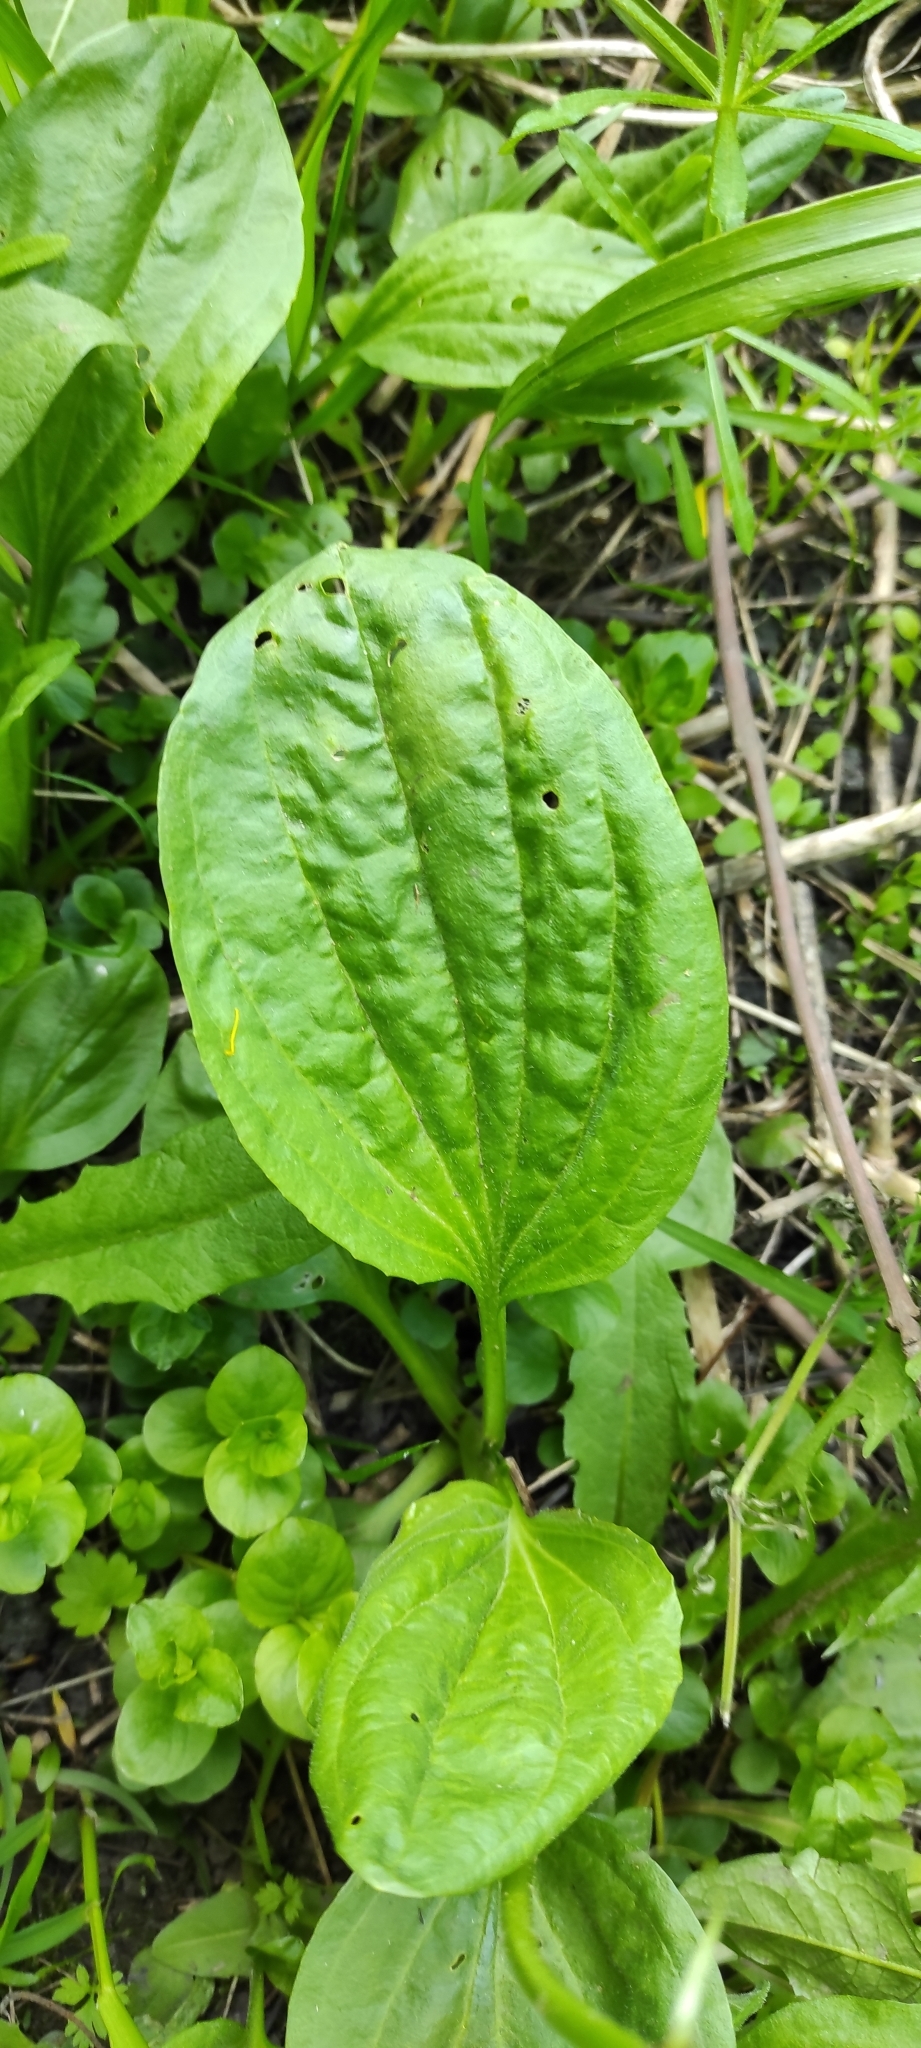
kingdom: Plantae
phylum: Tracheophyta
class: Magnoliopsida
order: Lamiales
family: Plantaginaceae
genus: Plantago
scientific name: Plantago major
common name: Common plantain
